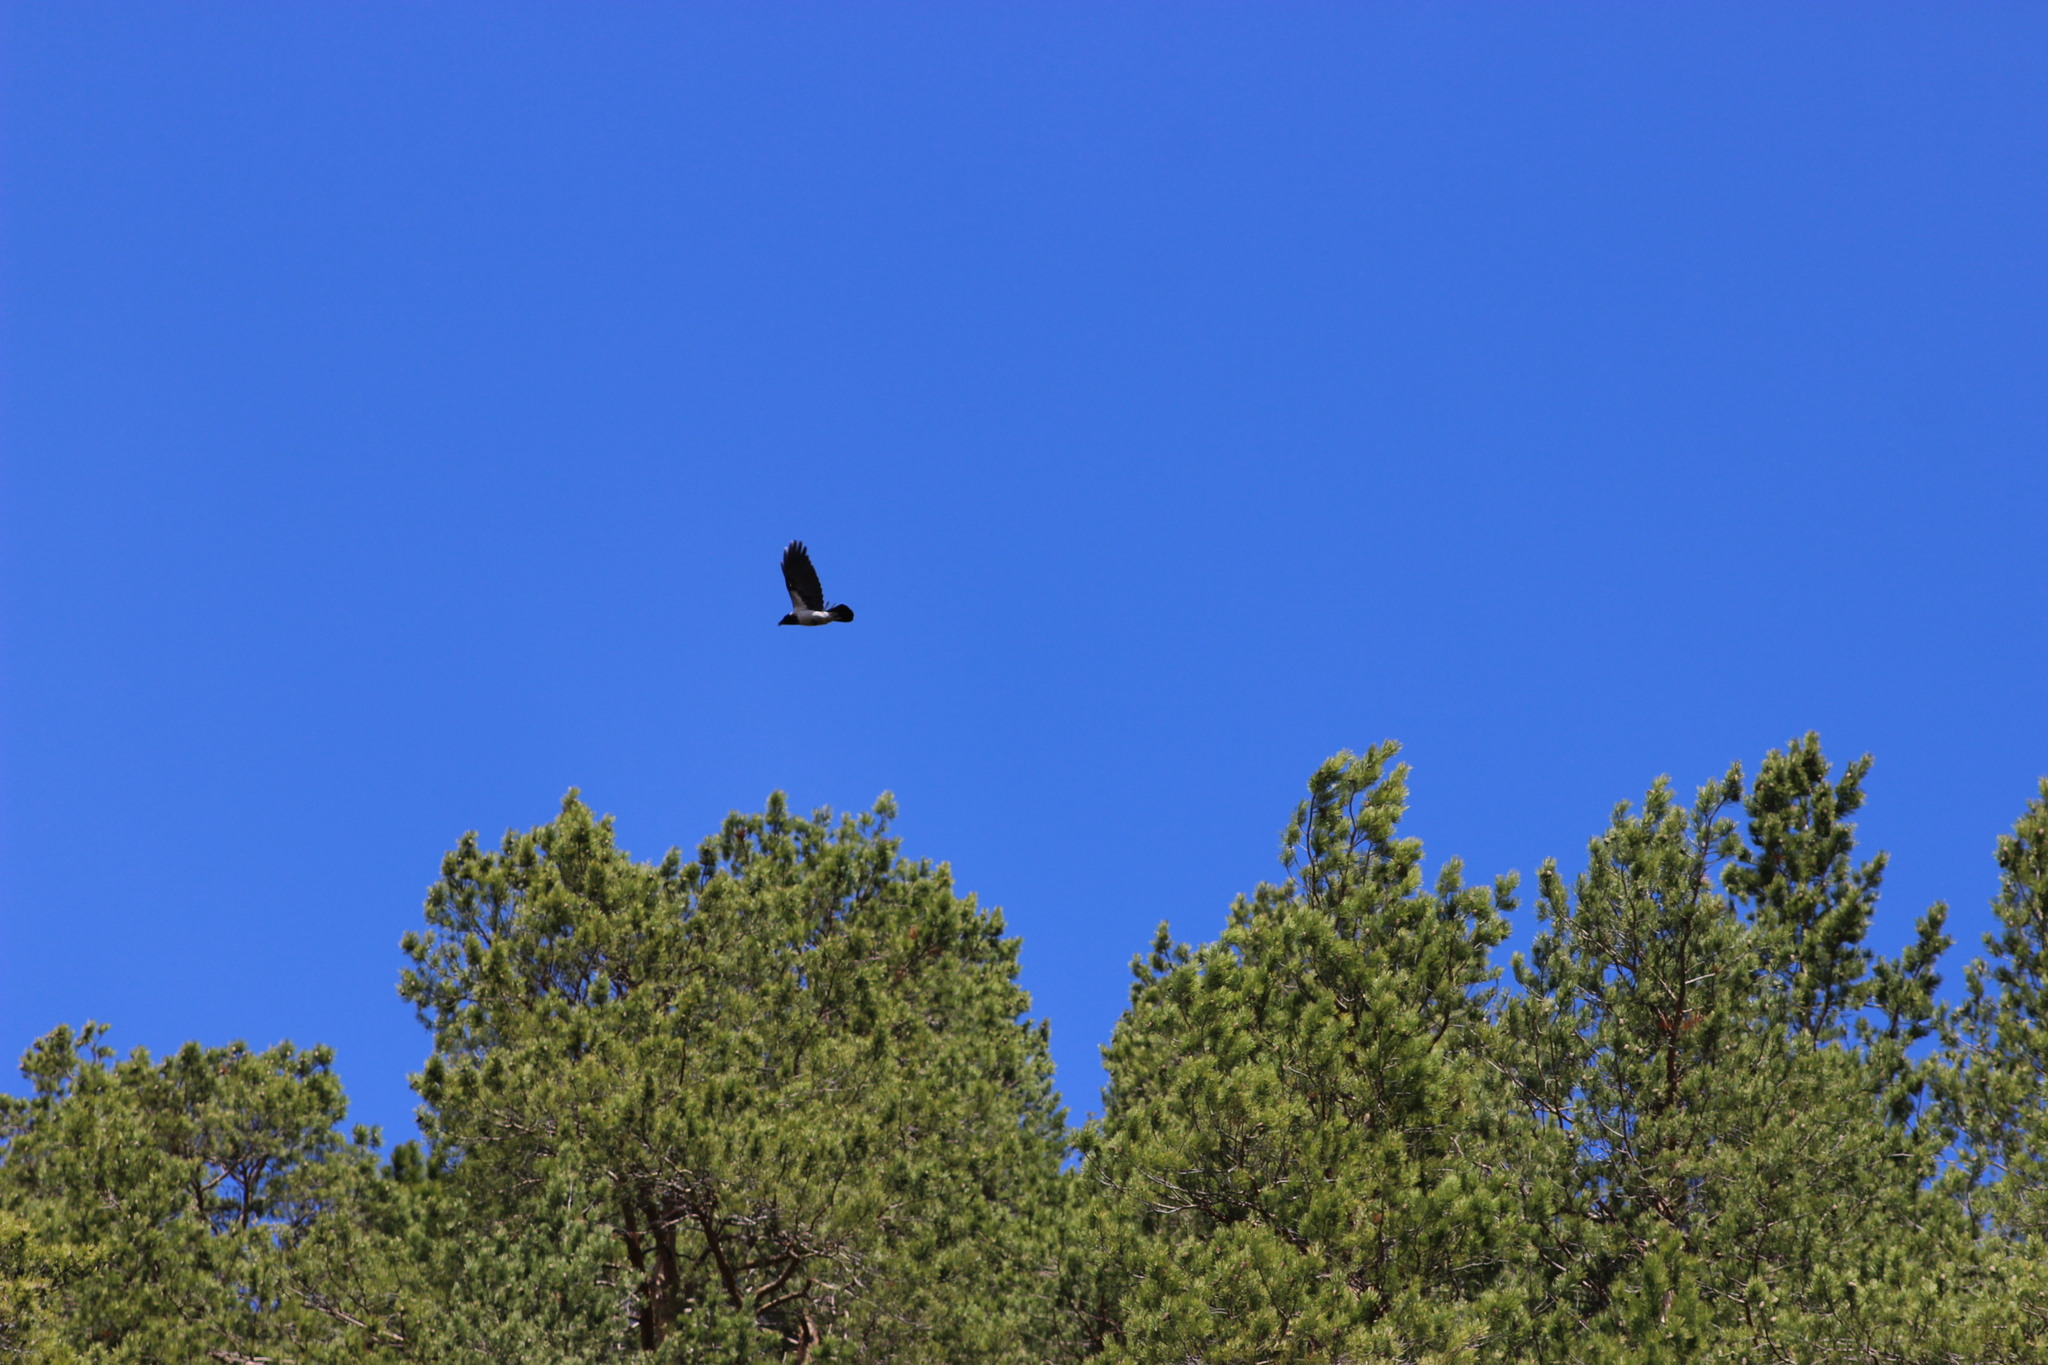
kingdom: Animalia
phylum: Chordata
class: Aves
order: Passeriformes
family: Corvidae
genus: Corvus
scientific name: Corvus cornix
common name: Hooded crow
